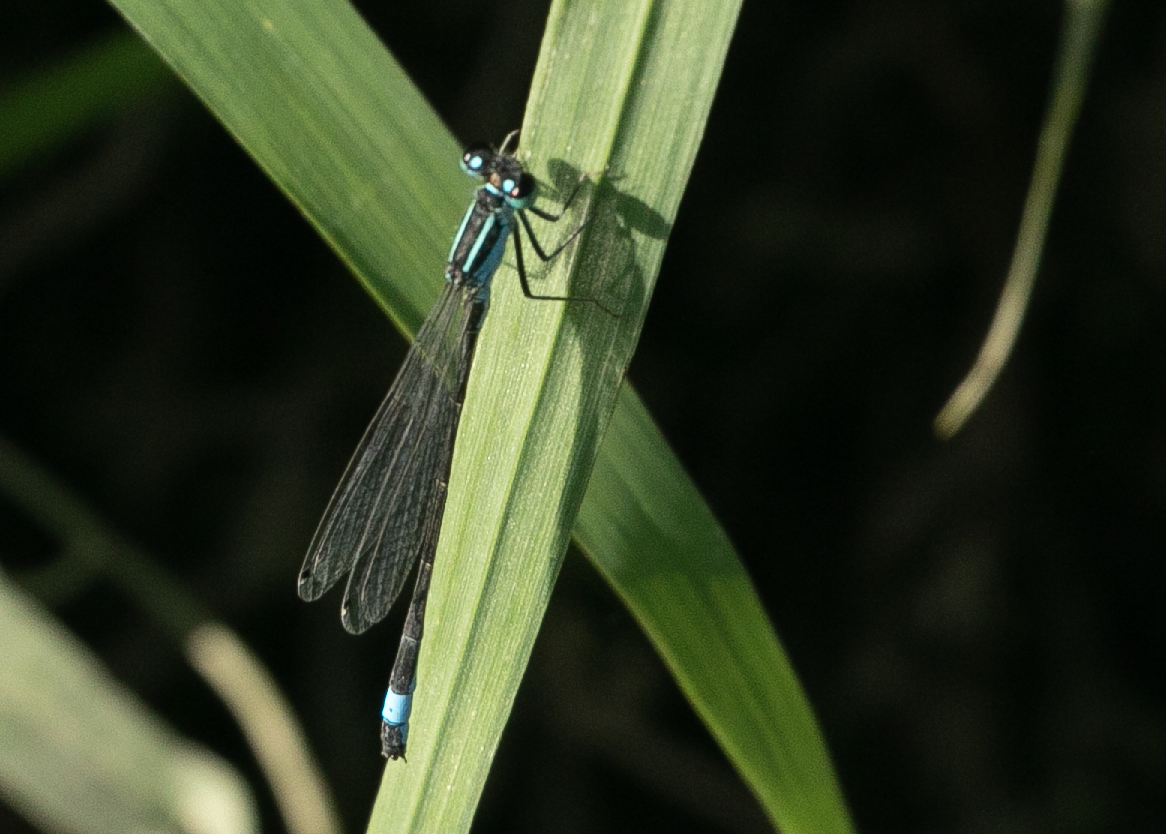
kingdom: Animalia
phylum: Arthropoda
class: Insecta
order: Odonata
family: Coenagrionidae
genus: Ischnura
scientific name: Ischnura elegans
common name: Blue-tailed damselfly
